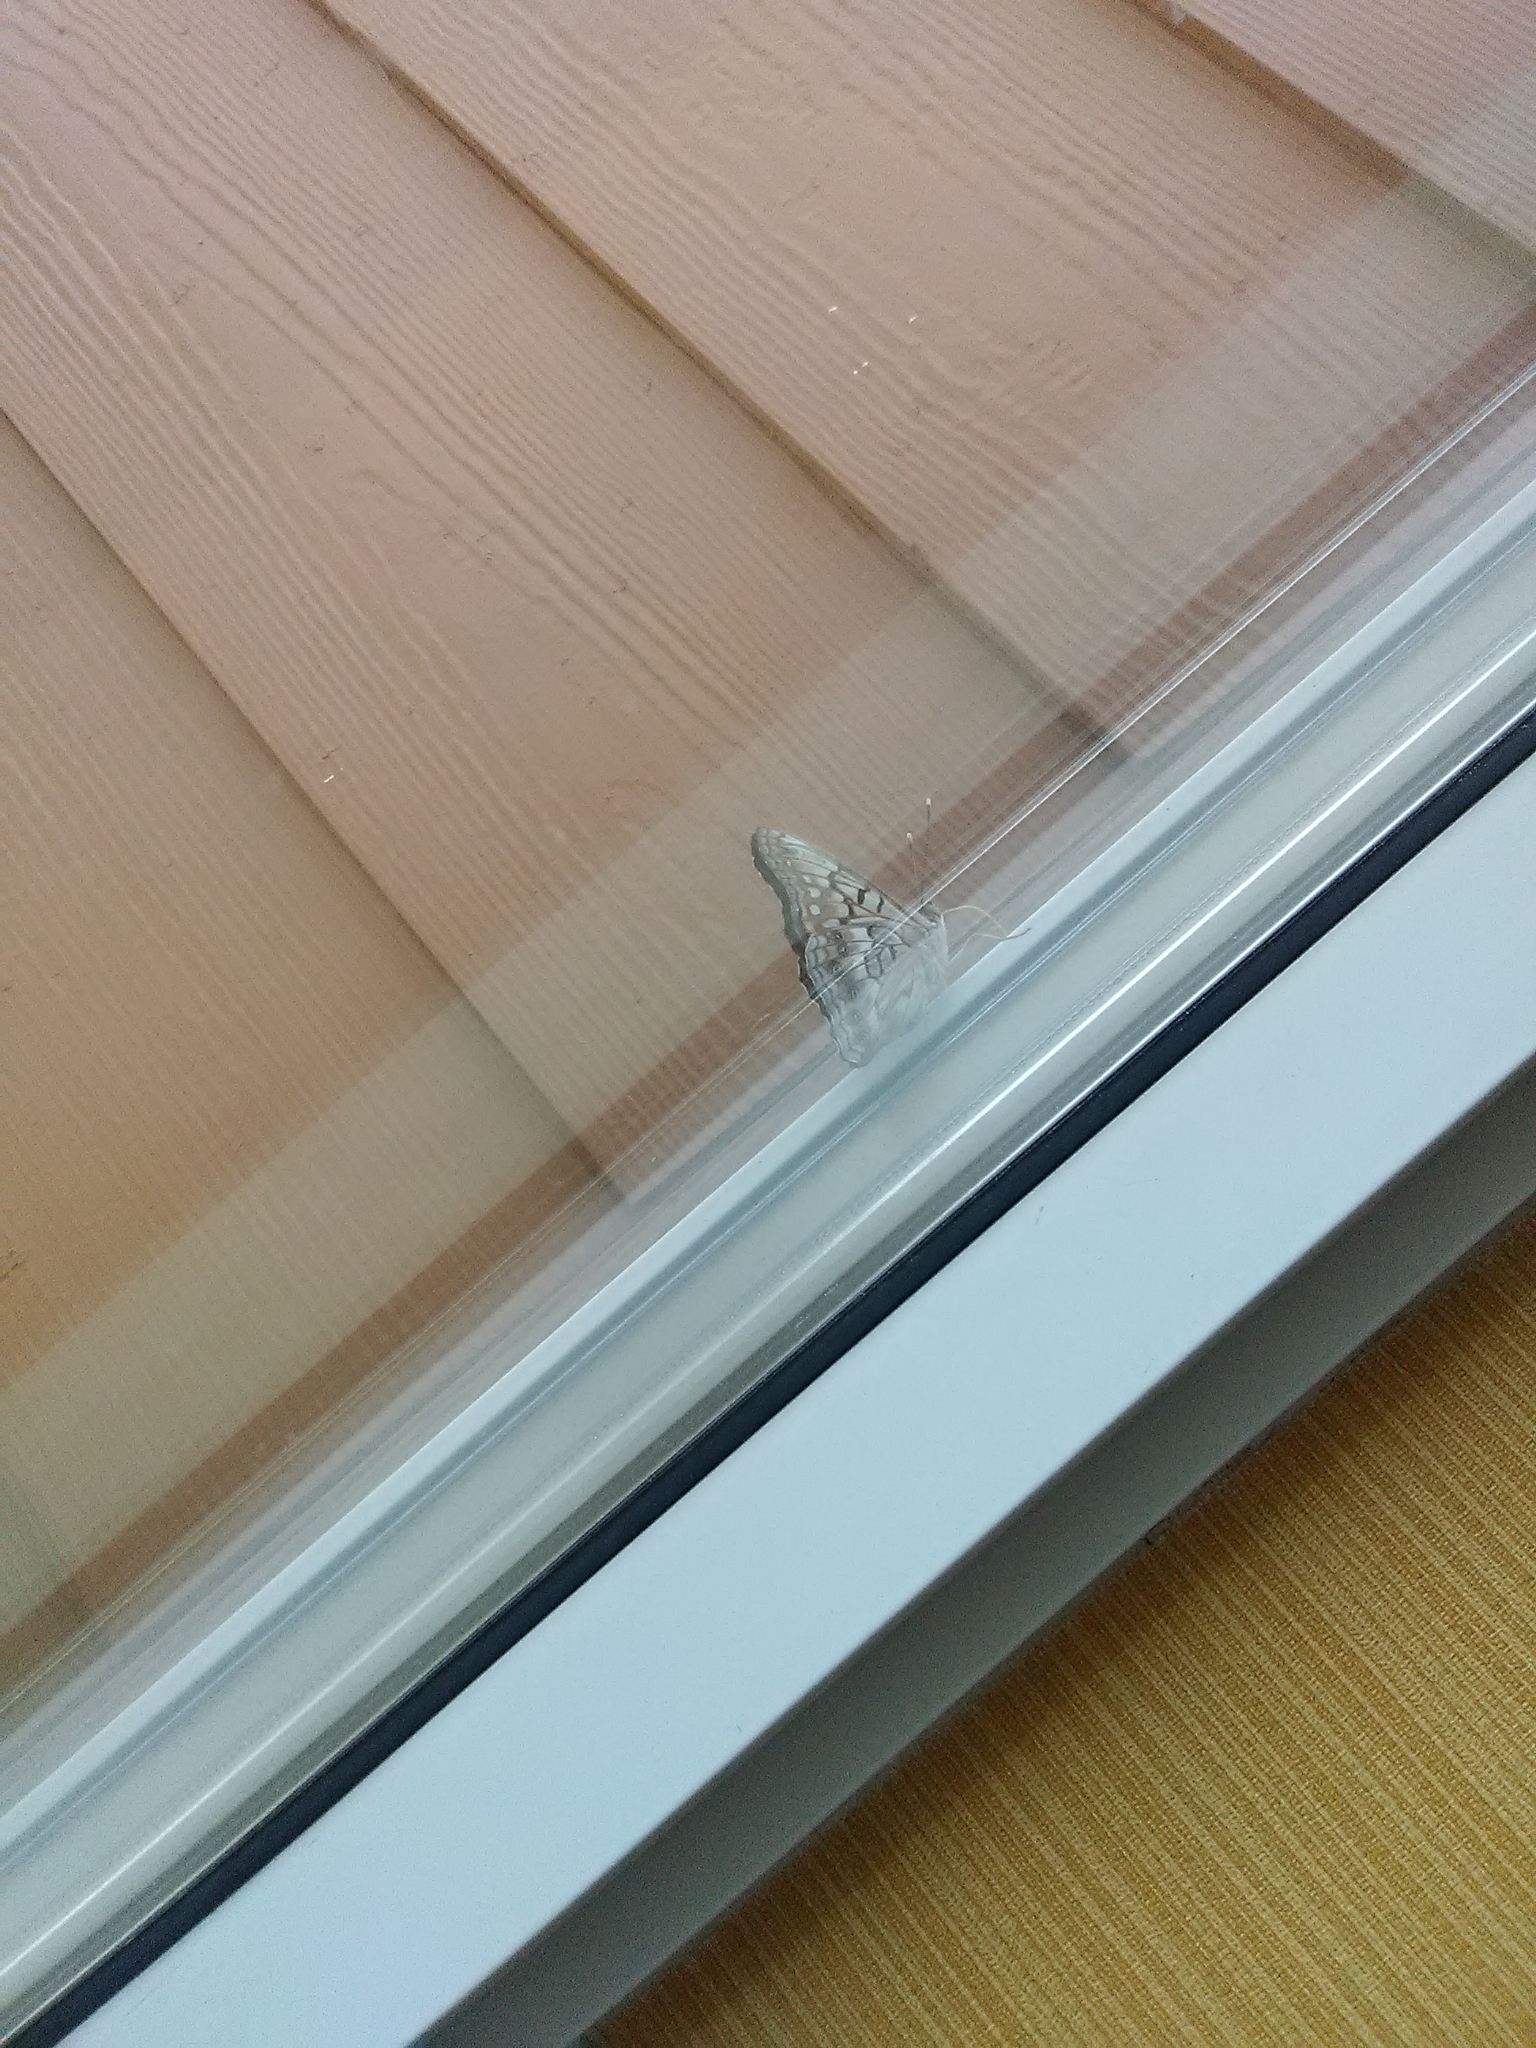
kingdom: Animalia
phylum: Arthropoda
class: Insecta
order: Lepidoptera
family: Nymphalidae
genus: Asterocampa
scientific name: Asterocampa clyton
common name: Tawny emperor
